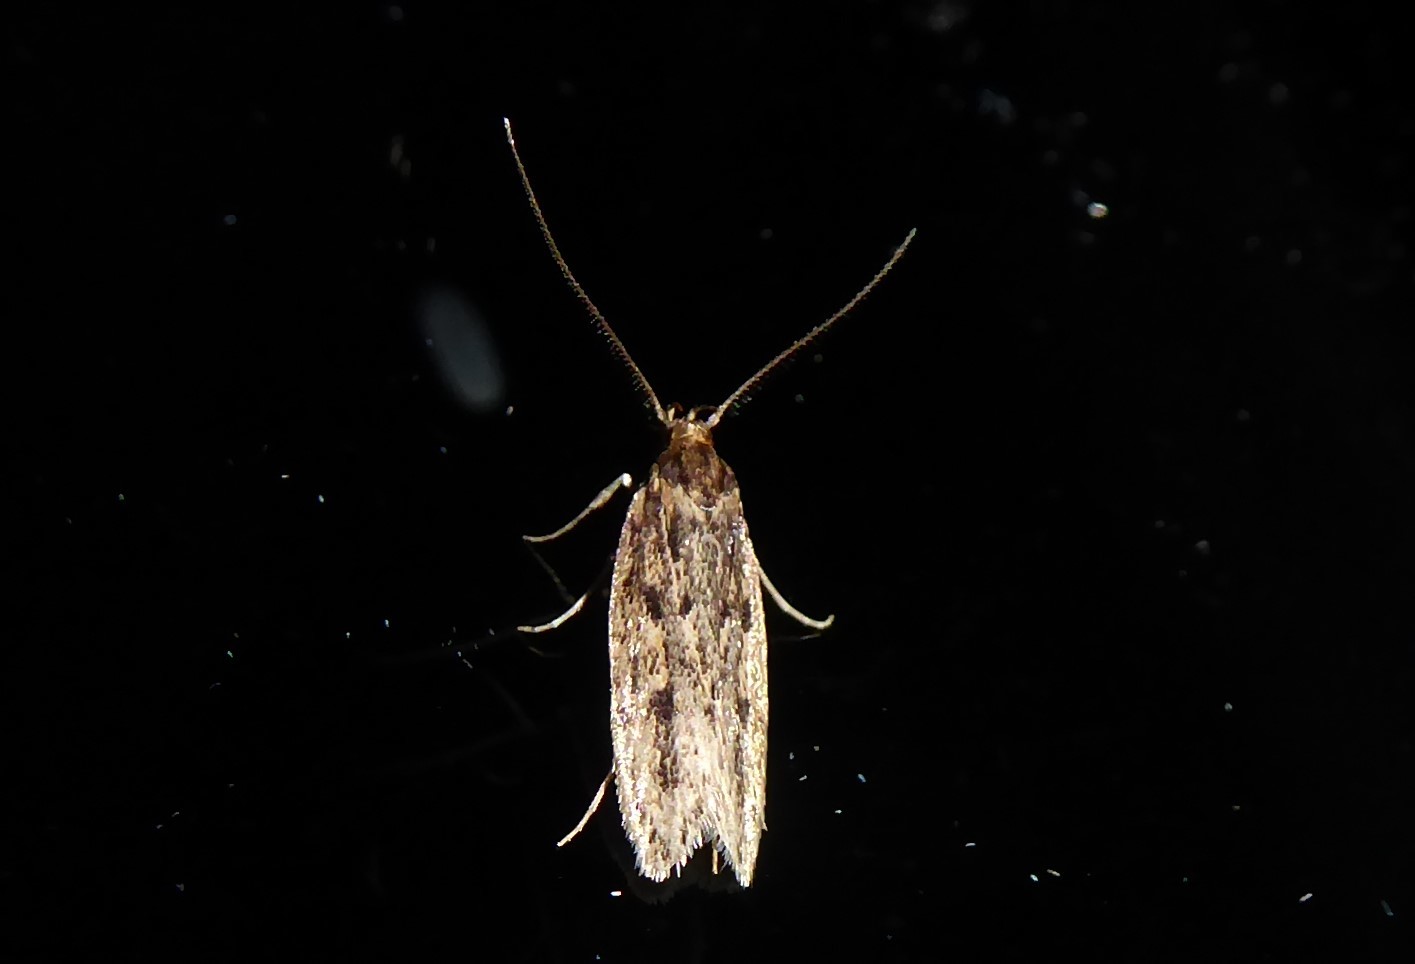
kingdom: Animalia
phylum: Arthropoda
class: Insecta
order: Lepidoptera
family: Oecophoridae
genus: Hofmannophila
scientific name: Hofmannophila pseudospretella
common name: Brown house moth
